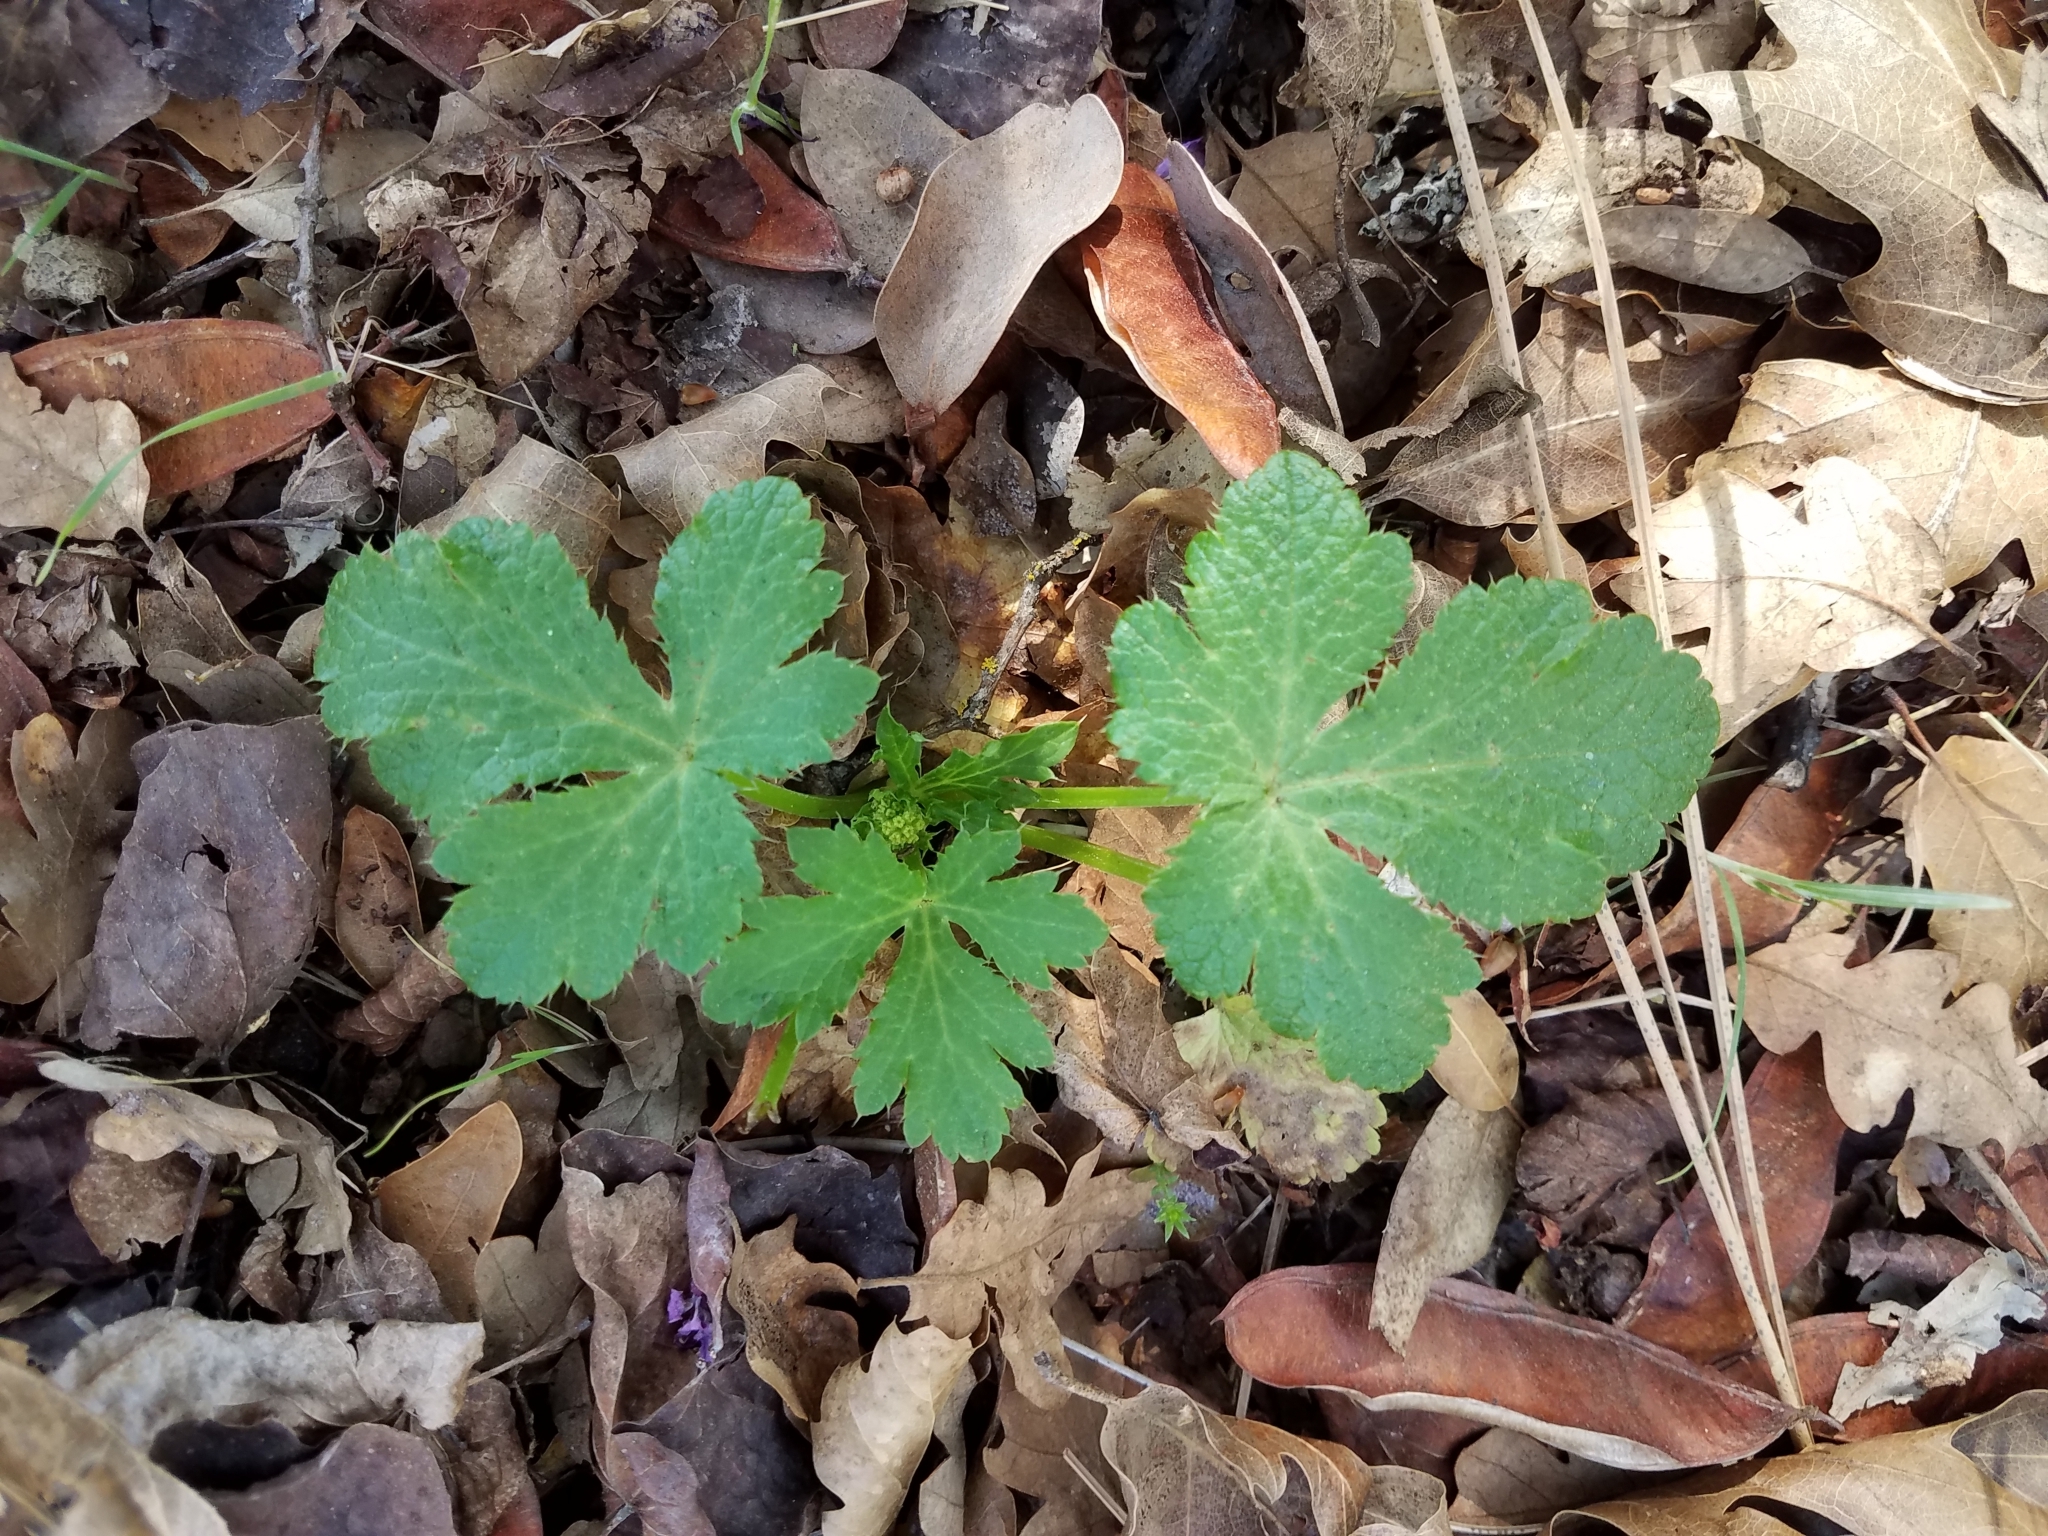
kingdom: Plantae
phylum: Tracheophyta
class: Magnoliopsida
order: Apiales
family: Apiaceae
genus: Sanicula
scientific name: Sanicula crassicaulis
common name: Western snakeroot
